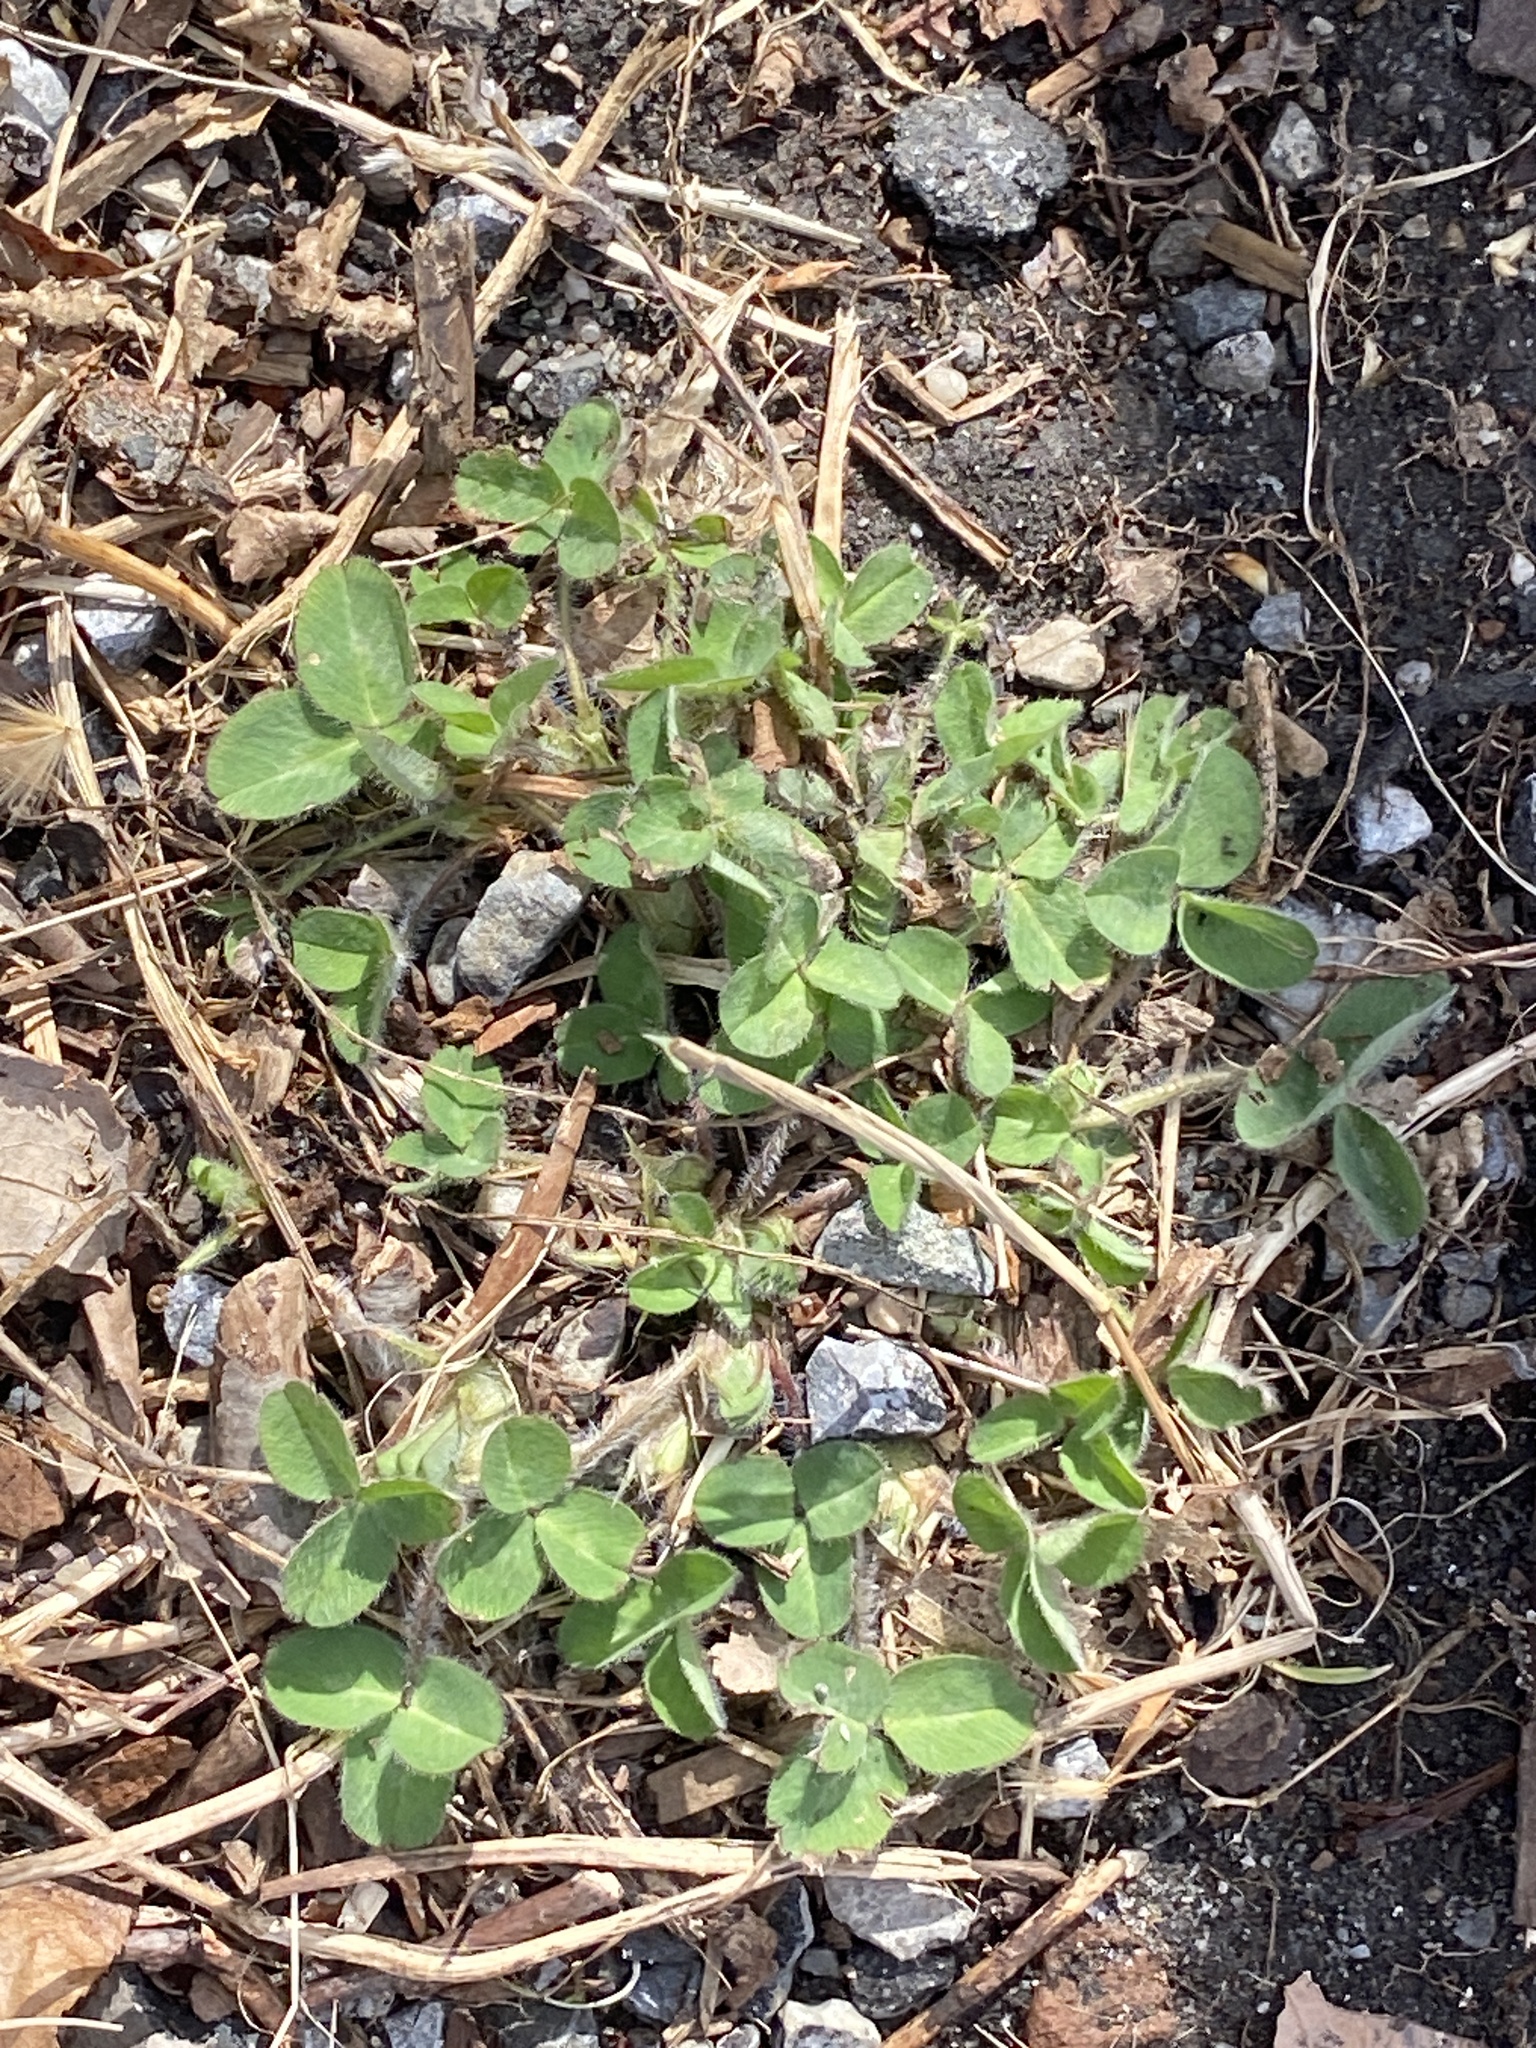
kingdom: Plantae
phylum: Tracheophyta
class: Magnoliopsida
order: Fabales
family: Fabaceae
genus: Trifolium
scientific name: Trifolium pratense
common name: Red clover
